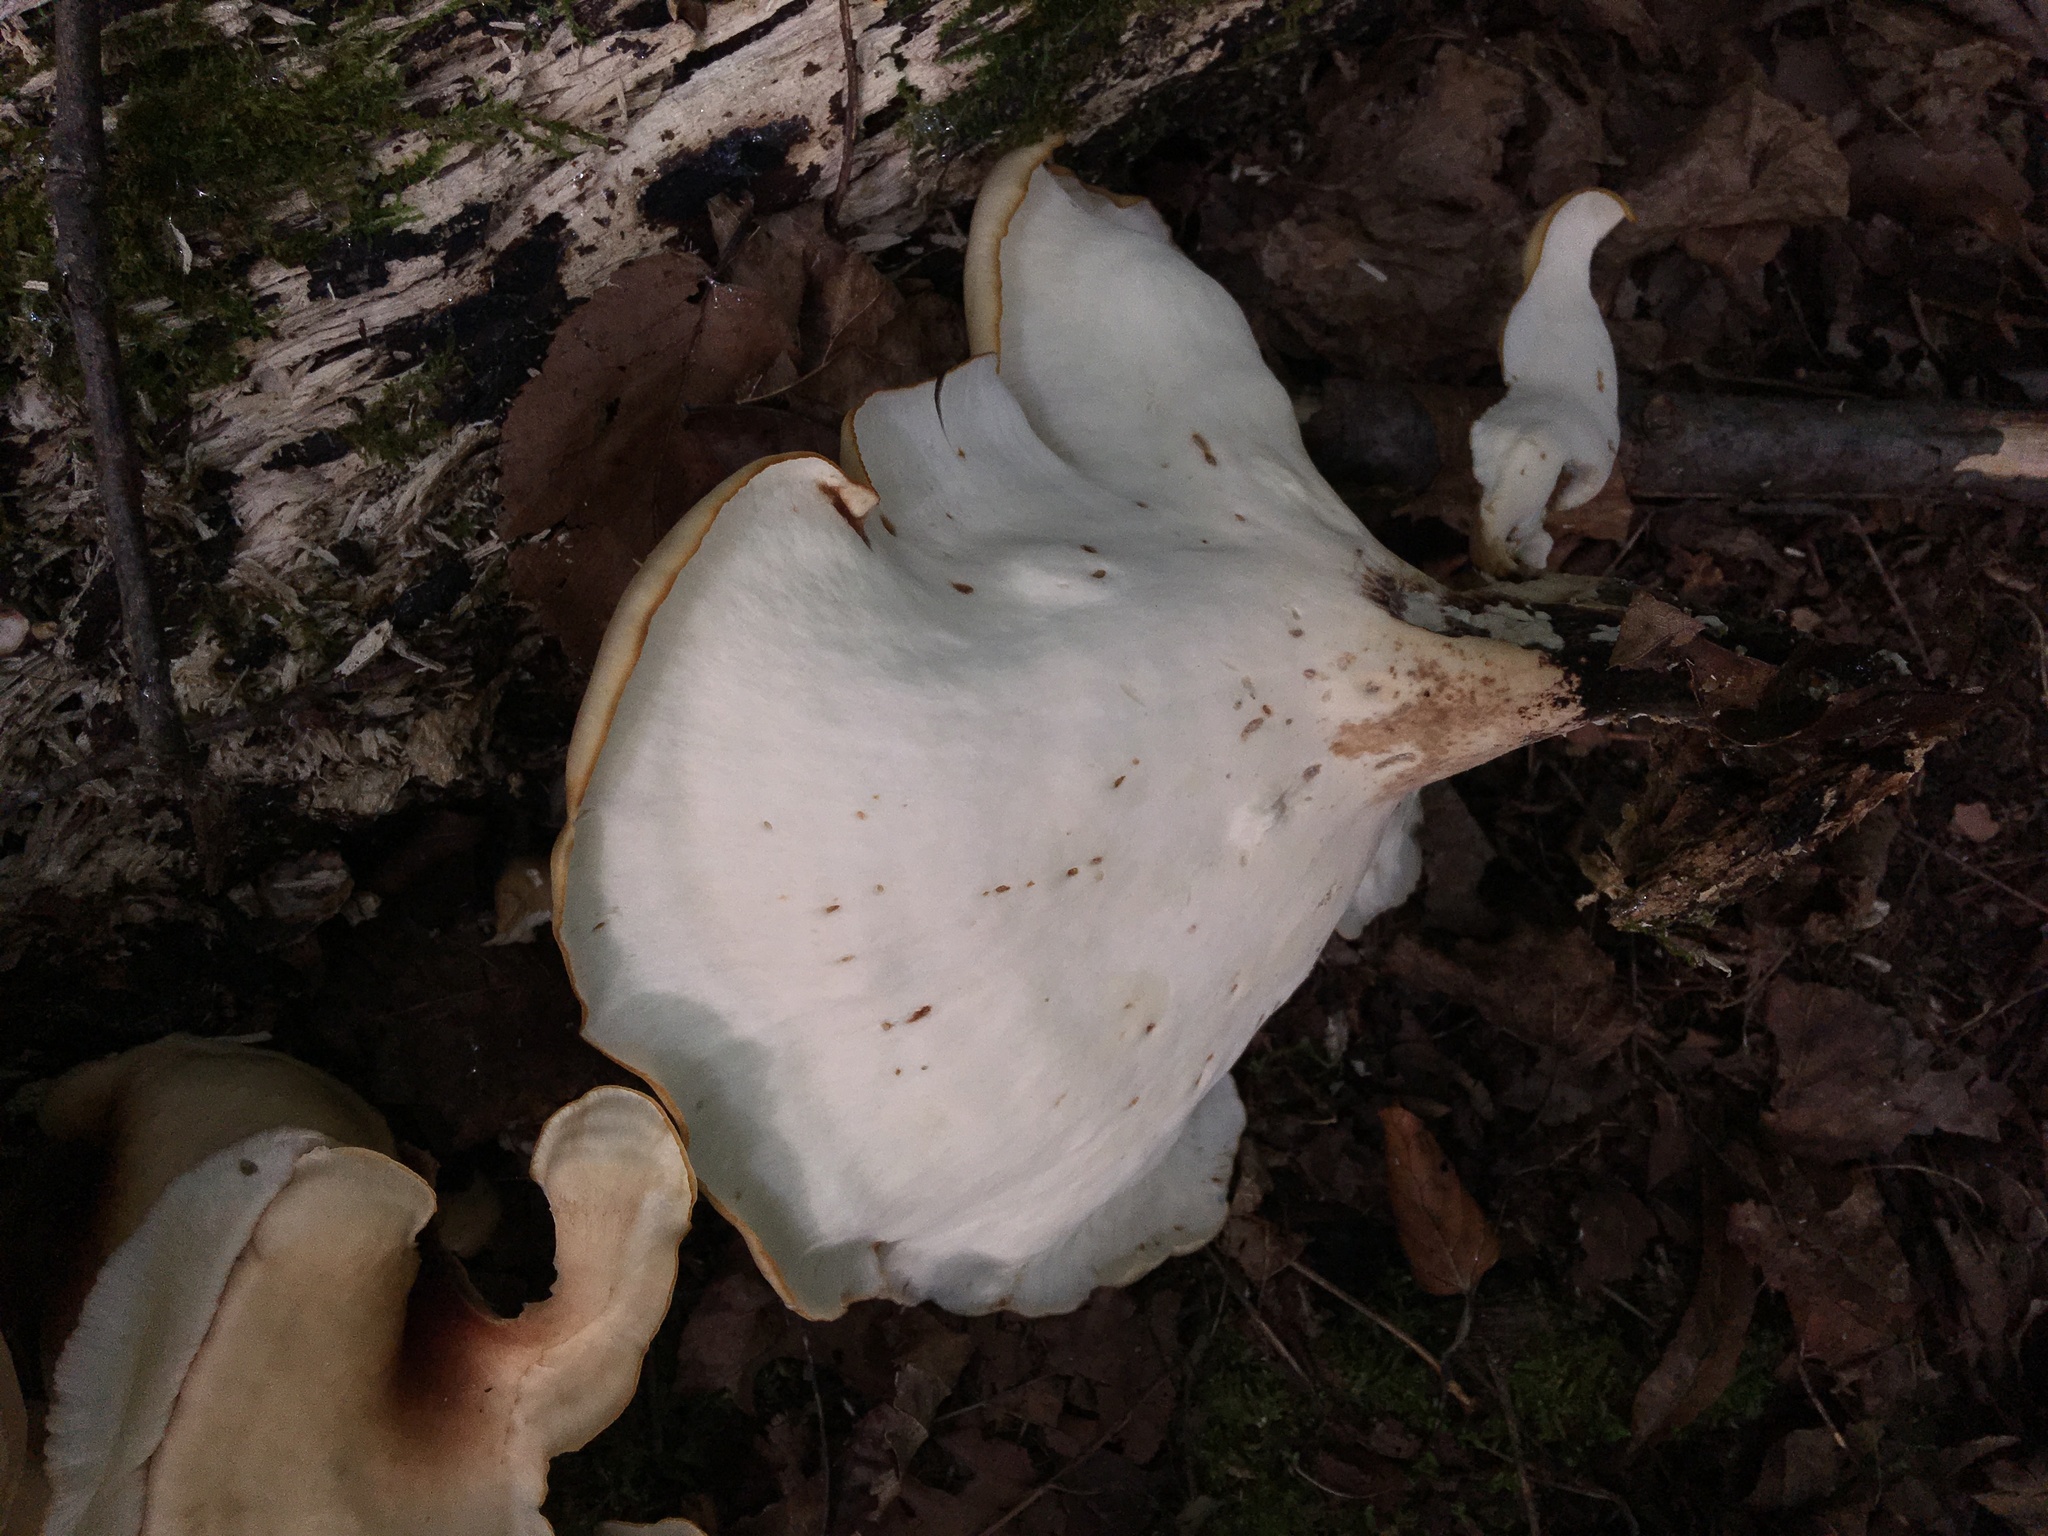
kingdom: Fungi
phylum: Basidiomycota
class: Agaricomycetes
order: Polyporales
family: Polyporaceae
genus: Picipes
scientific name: Picipes badius
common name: Bay polypore
